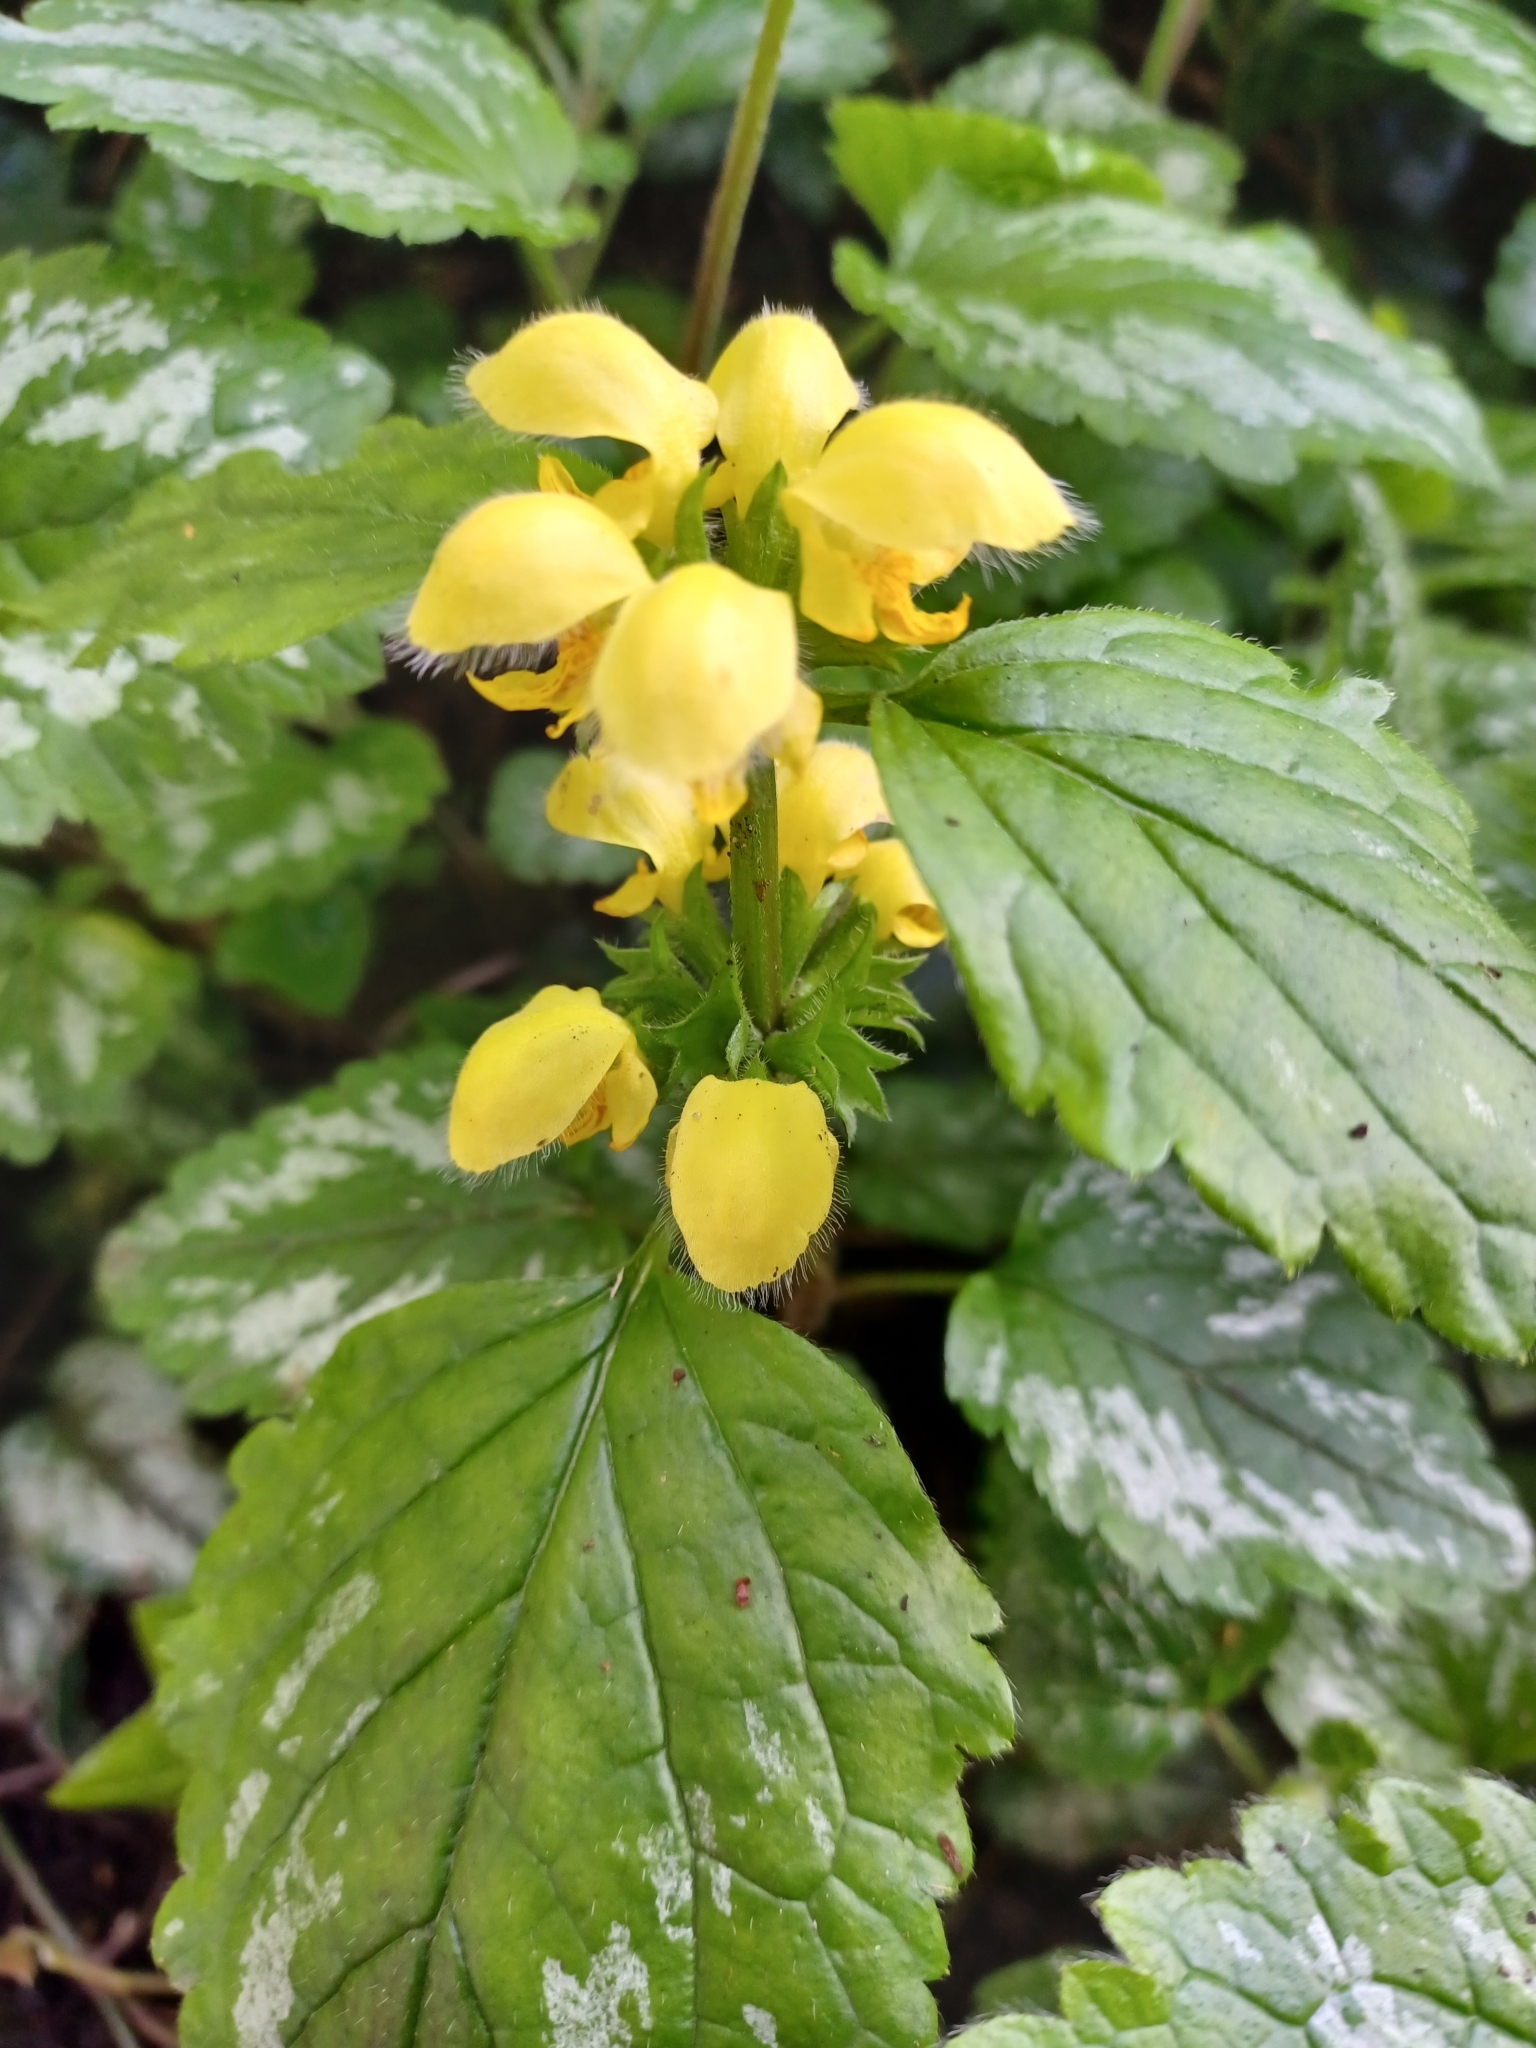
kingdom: Plantae
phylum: Tracheophyta
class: Magnoliopsida
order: Lamiales
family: Lamiaceae
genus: Lamium
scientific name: Lamium galeobdolon
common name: Yellow archangel
